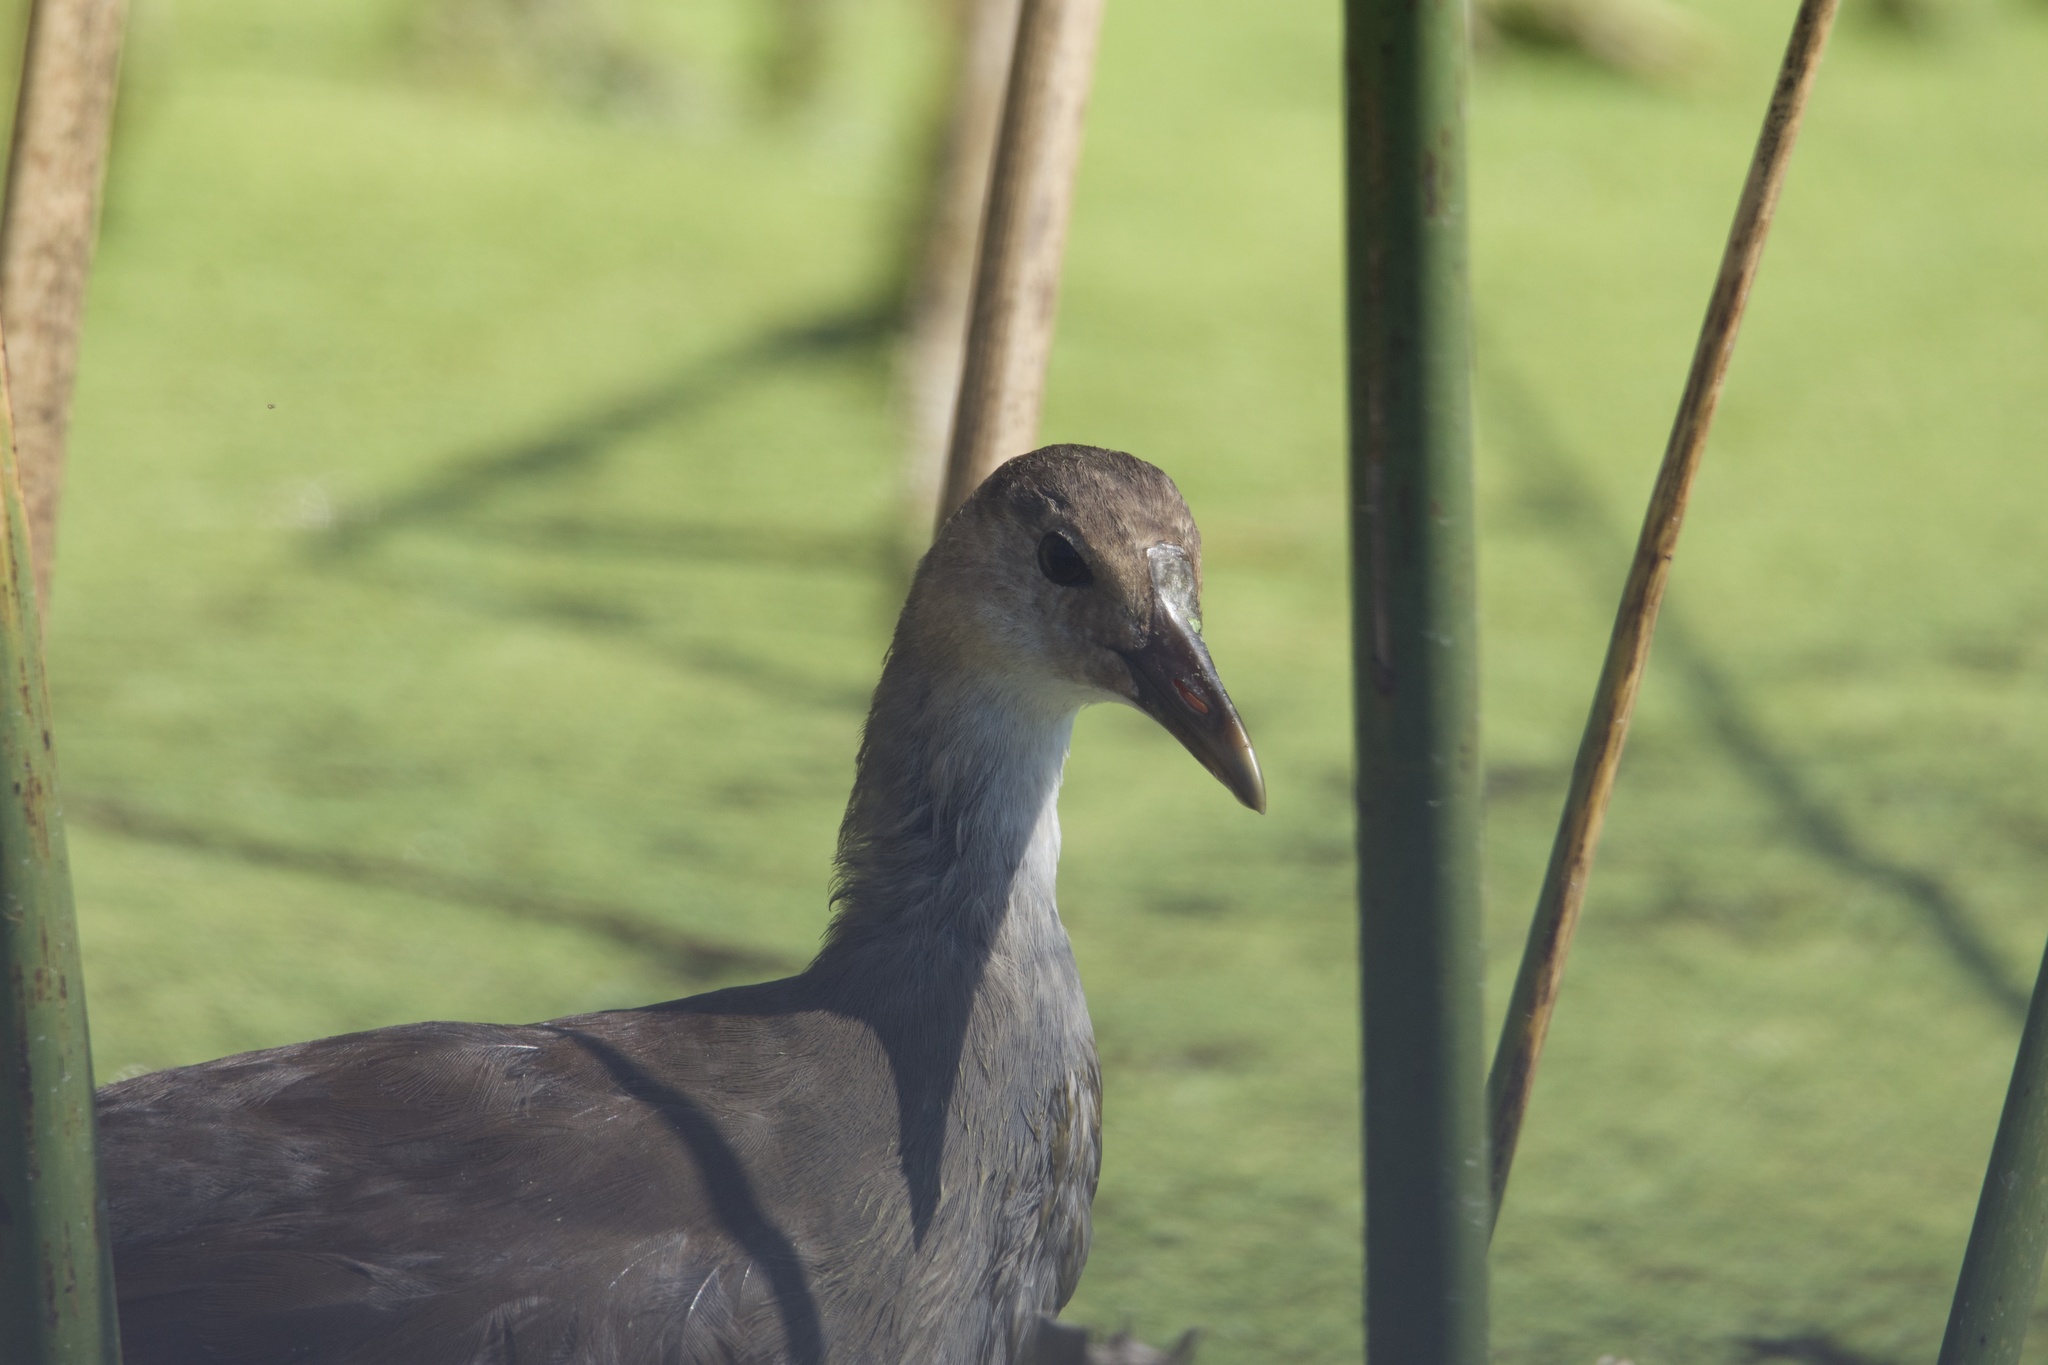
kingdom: Animalia
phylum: Chordata
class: Aves
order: Gruiformes
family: Rallidae
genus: Gallinula
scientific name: Gallinula chloropus
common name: Common moorhen
